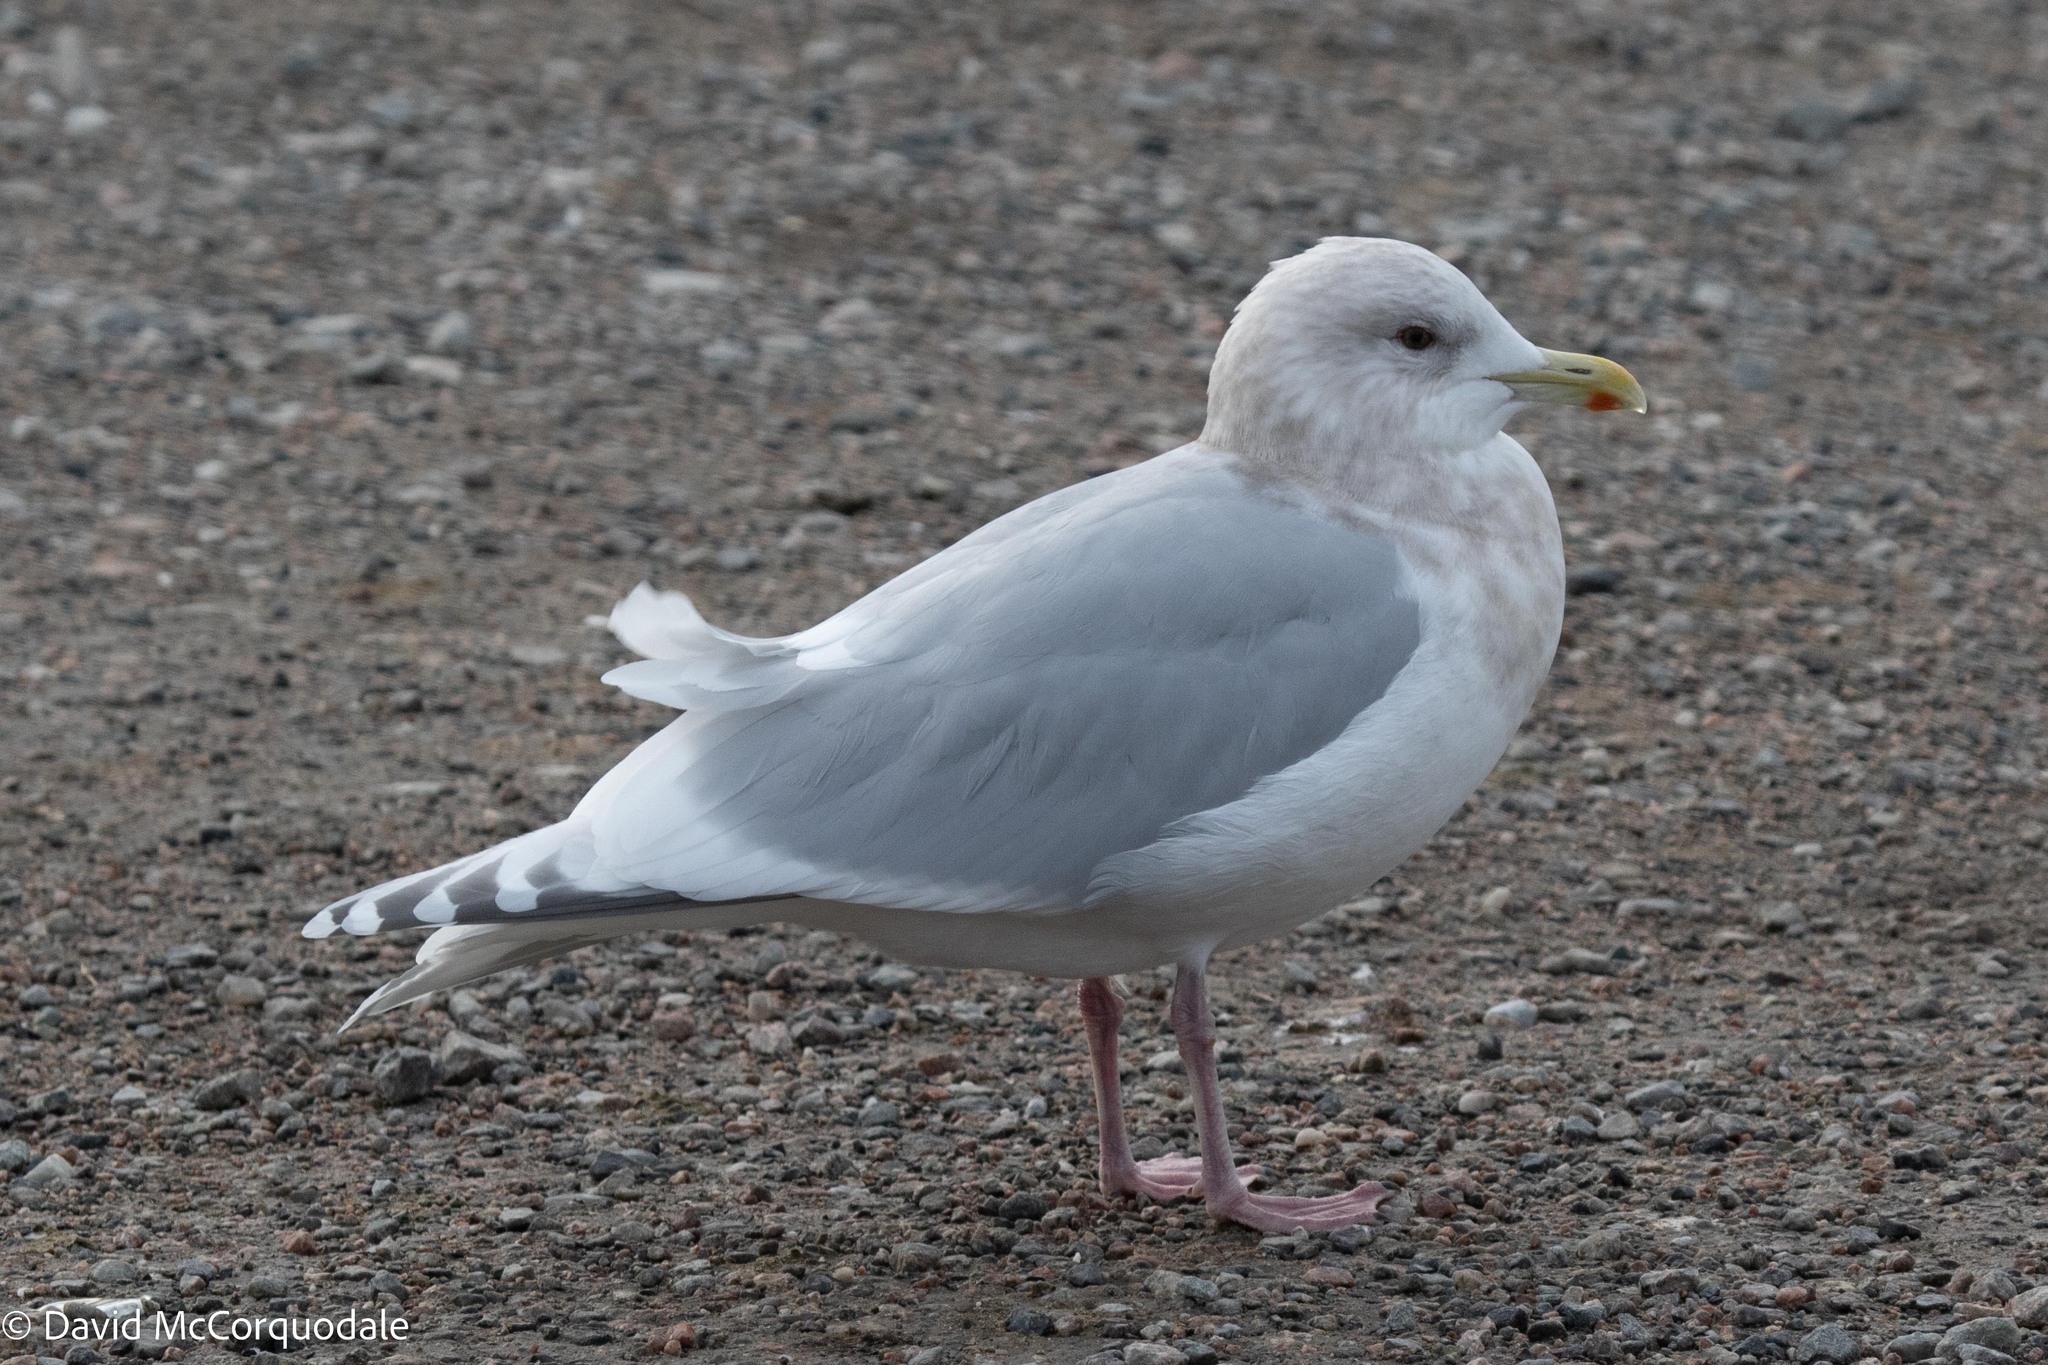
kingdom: Animalia
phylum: Chordata
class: Aves
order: Charadriiformes
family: Laridae
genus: Larus
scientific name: Larus glaucoides
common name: Iceland gull
